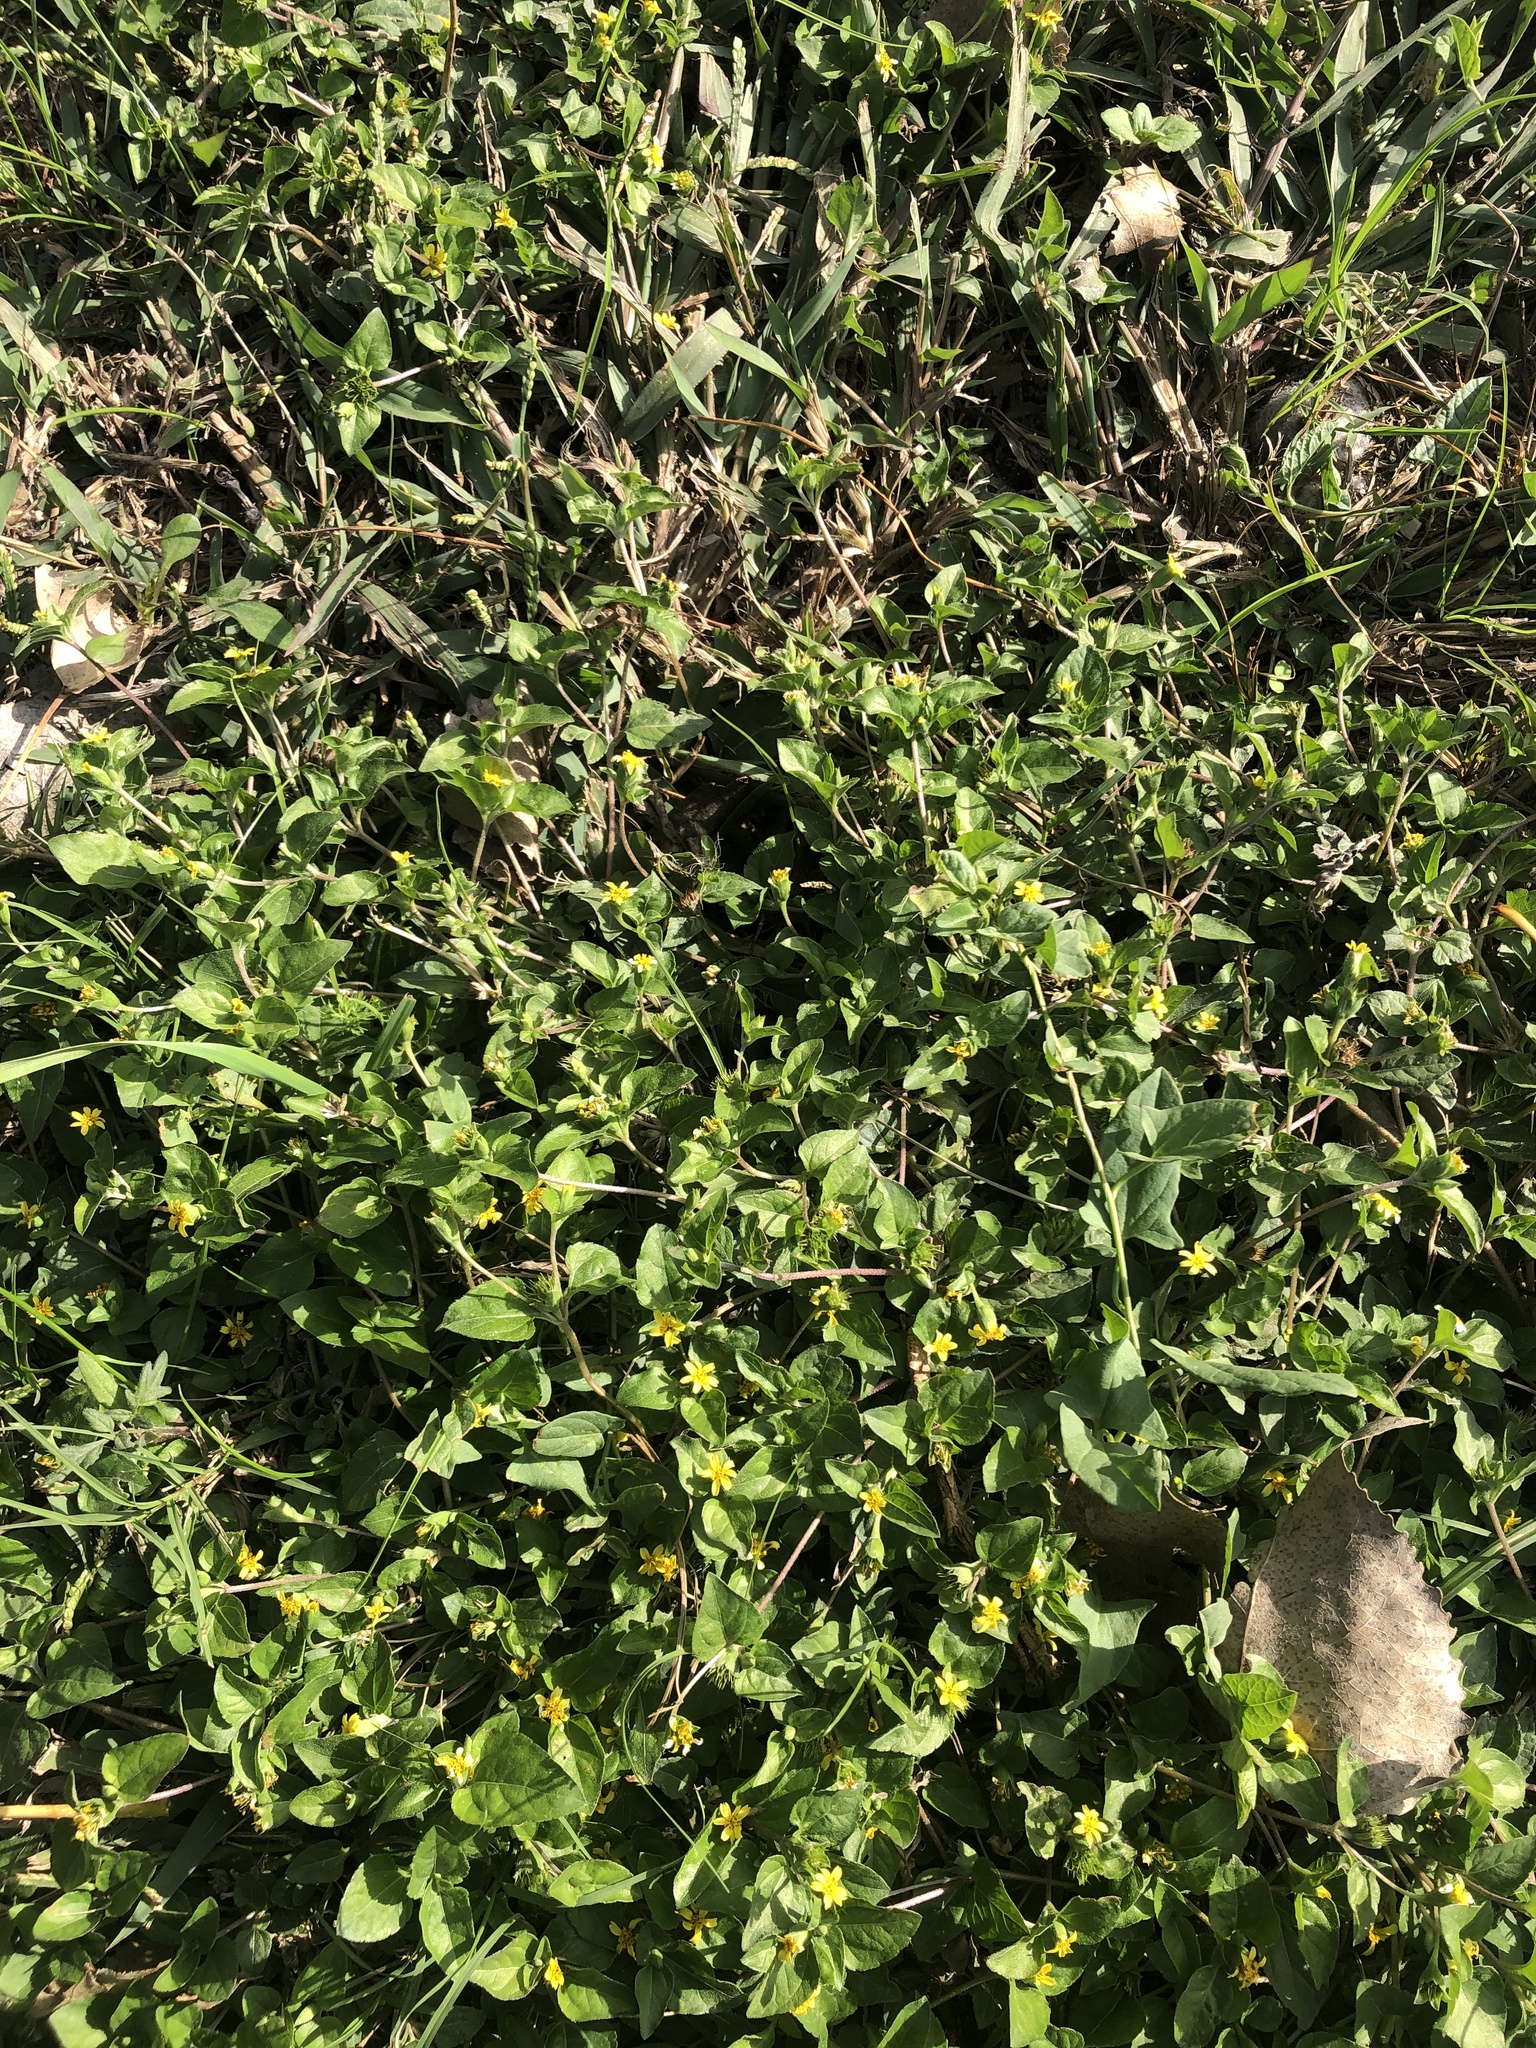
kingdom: Plantae
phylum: Tracheophyta
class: Magnoliopsida
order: Asterales
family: Asteraceae
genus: Calyptocarpus
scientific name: Calyptocarpus vialis
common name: Straggler daisy
